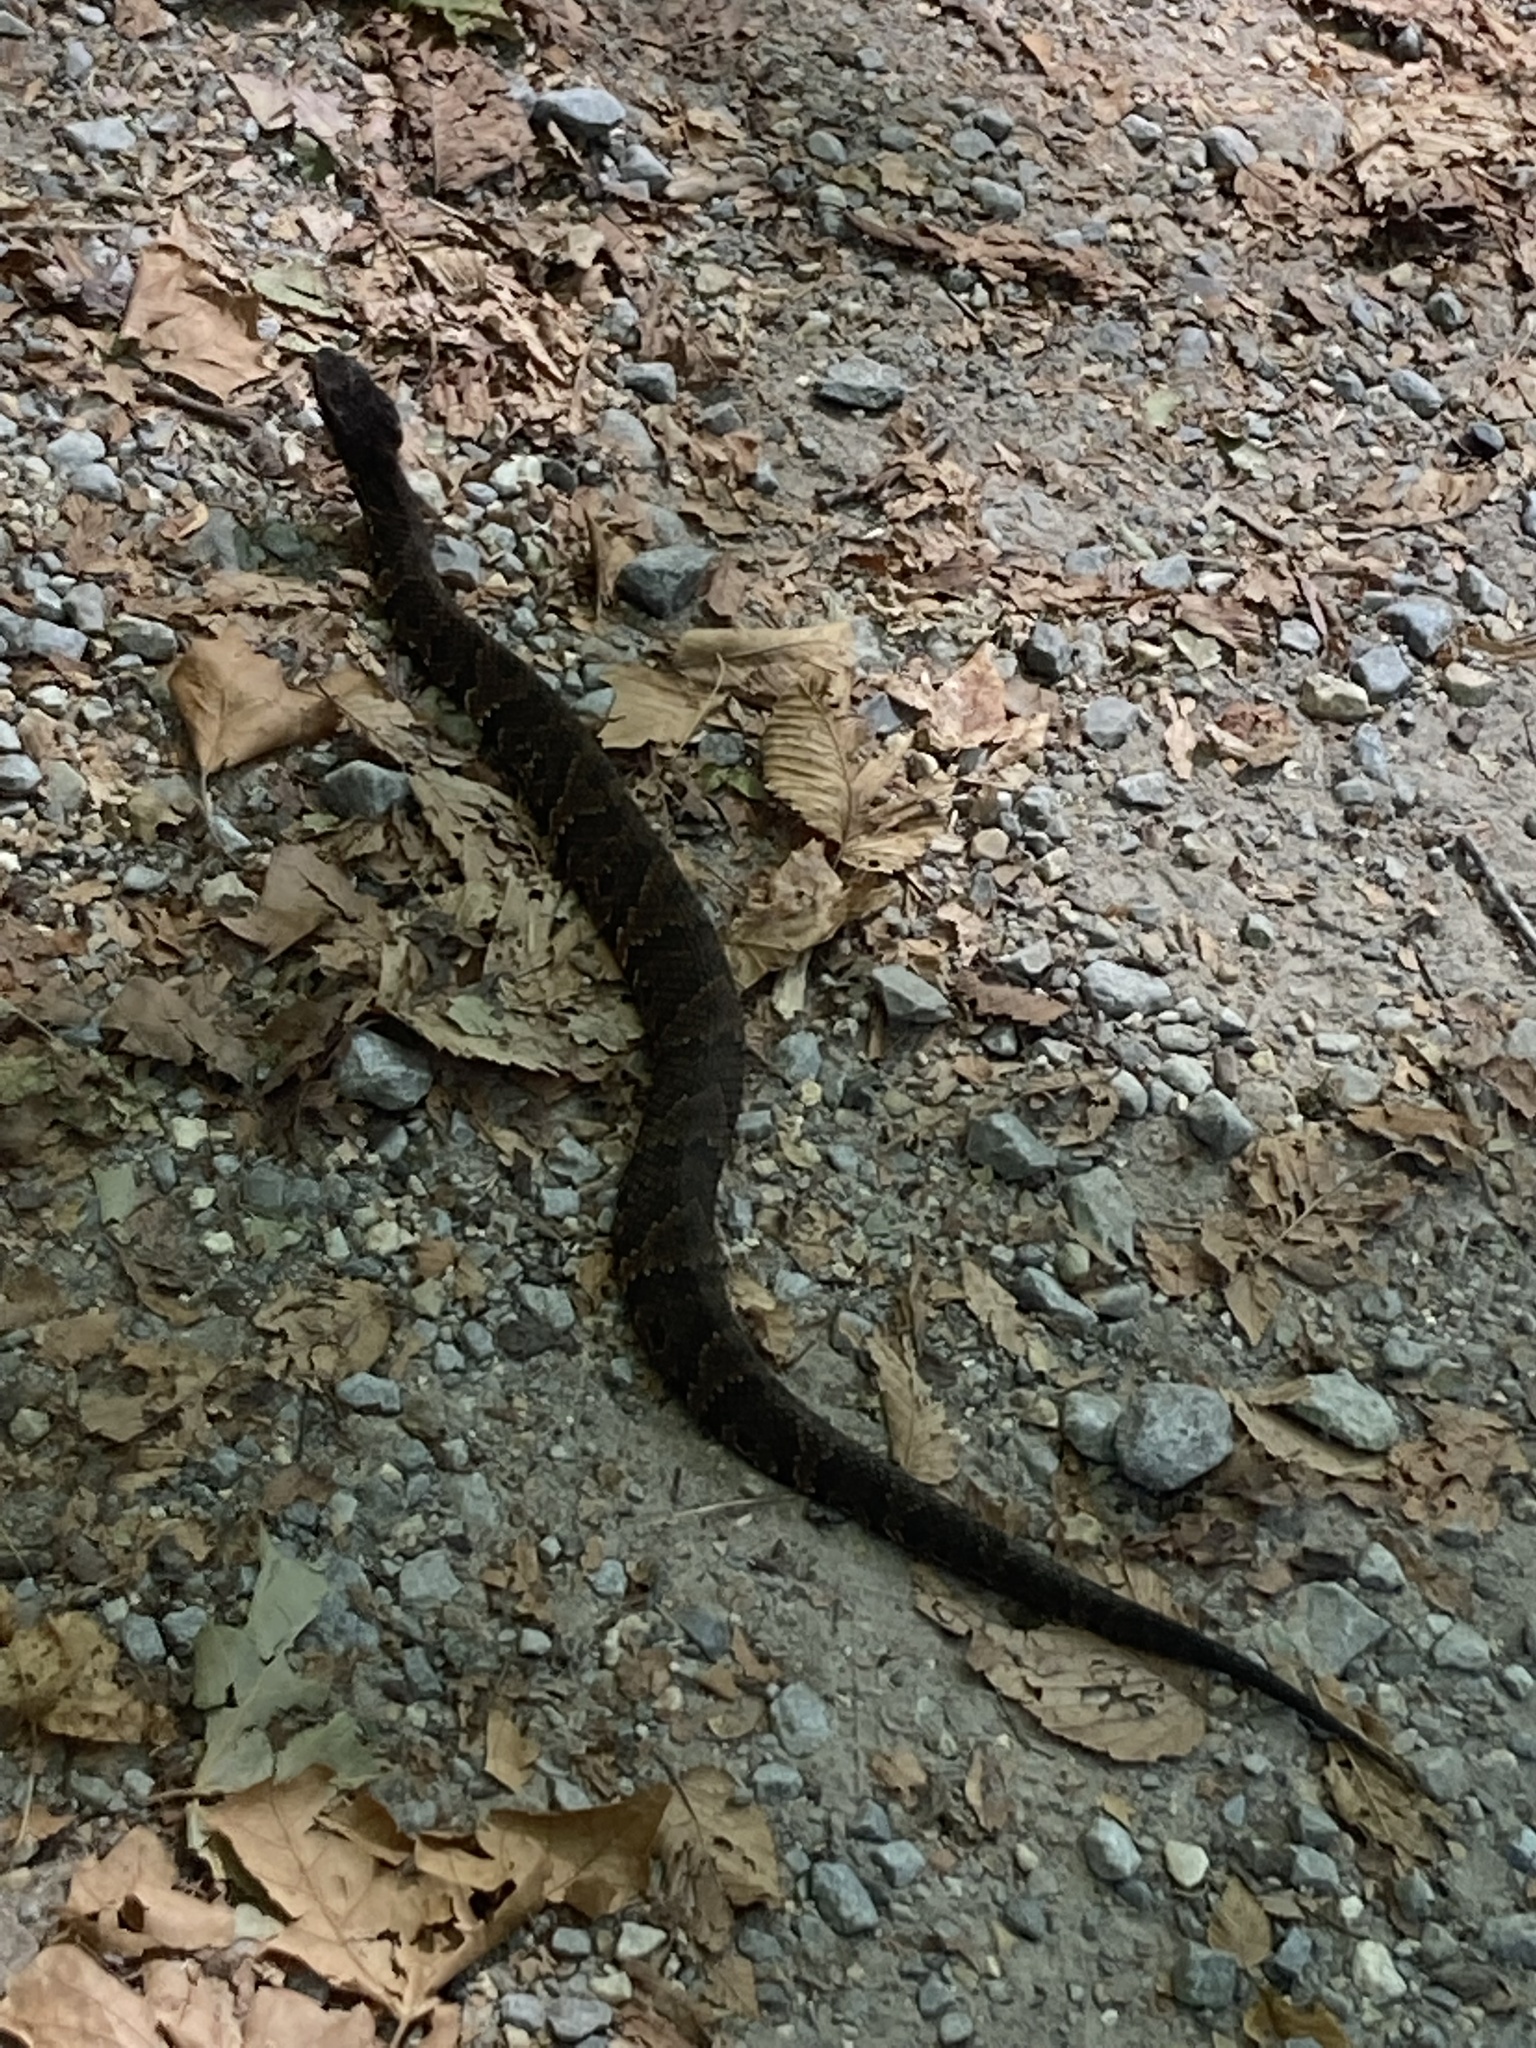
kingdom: Animalia
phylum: Chordata
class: Squamata
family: Viperidae
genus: Agkistrodon
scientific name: Agkistrodon piscivorus
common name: Cottonmouth
